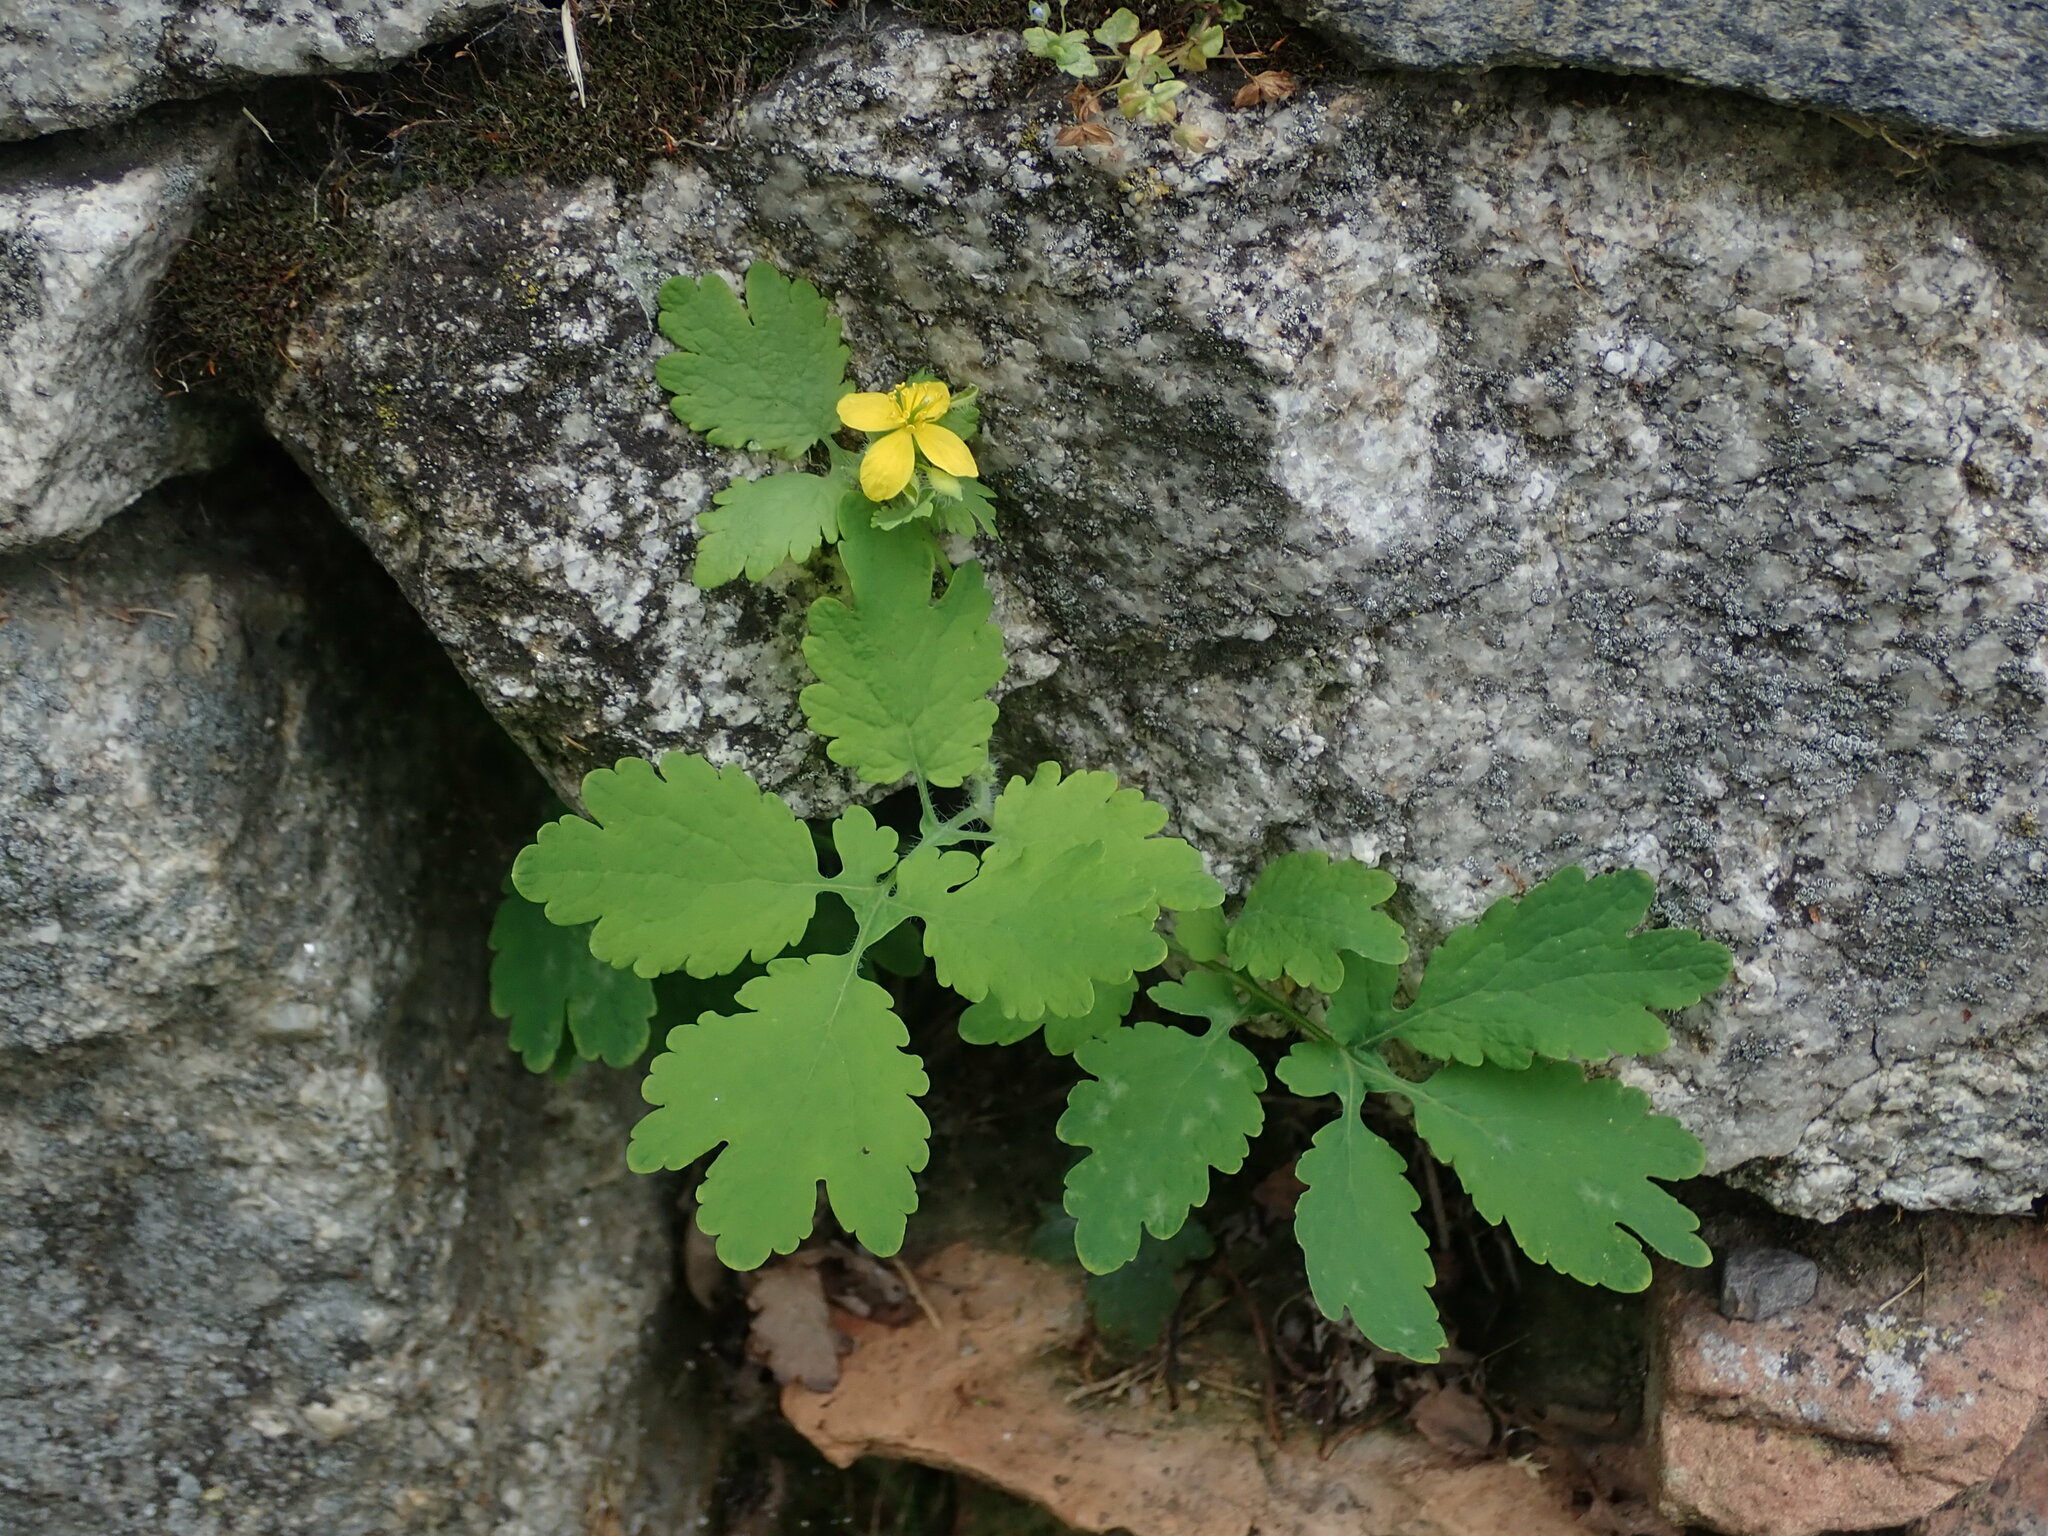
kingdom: Plantae
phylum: Tracheophyta
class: Magnoliopsida
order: Ranunculales
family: Papaveraceae
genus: Chelidonium
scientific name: Chelidonium majus
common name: Greater celandine
